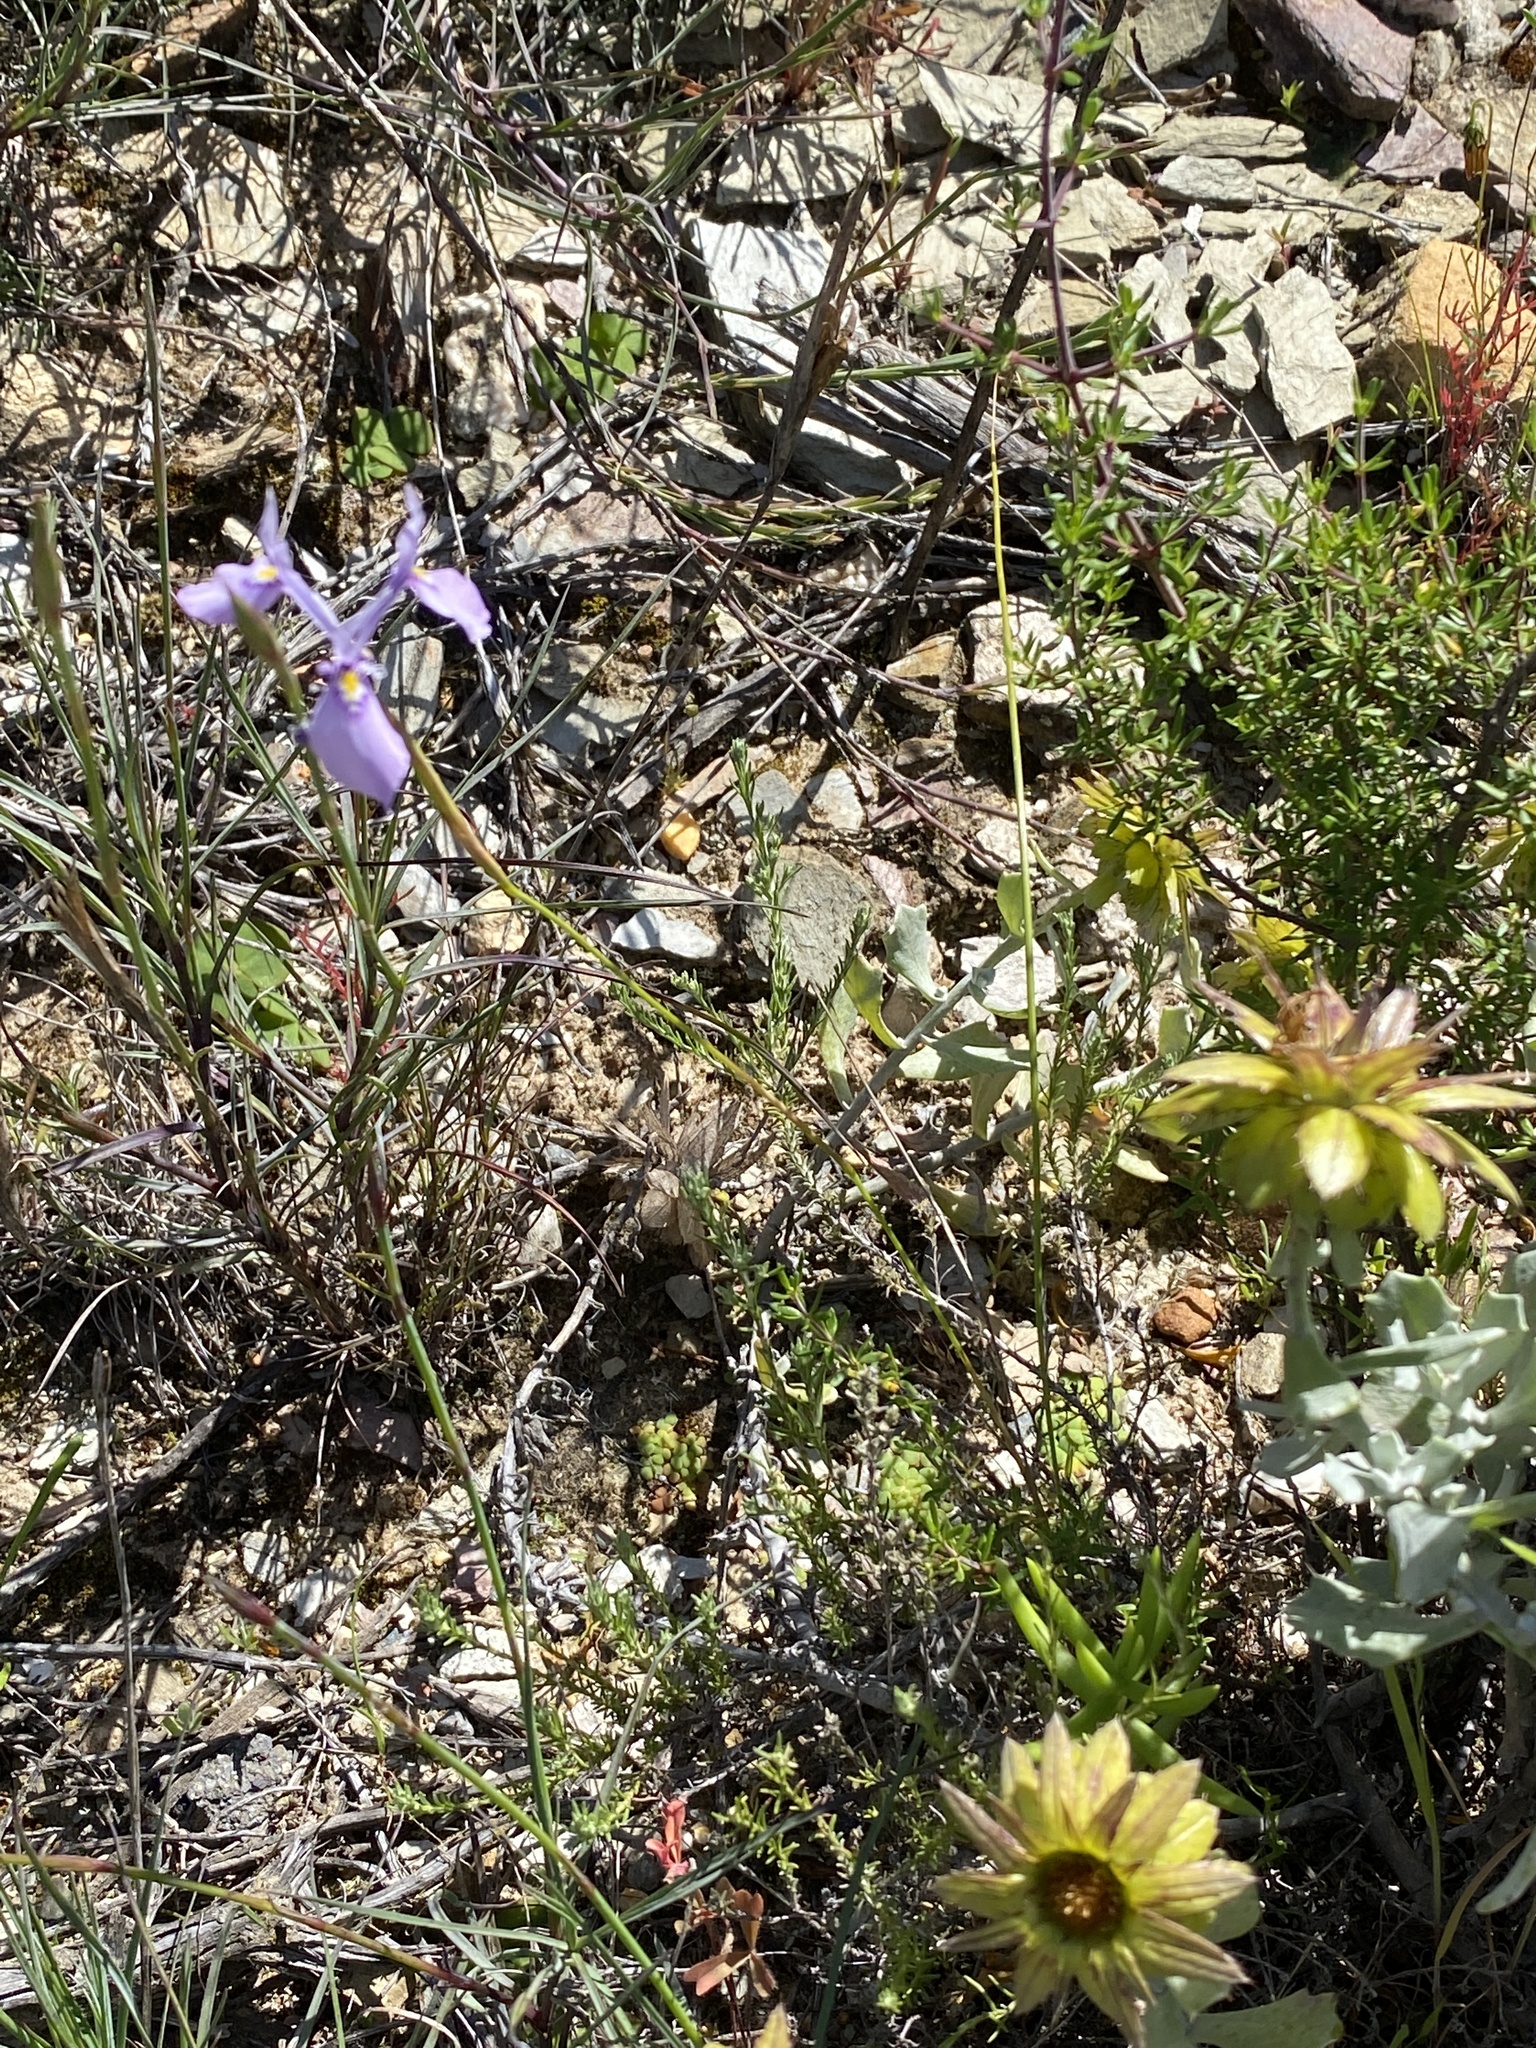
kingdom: Plantae
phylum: Tracheophyta
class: Liliopsida
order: Asparagales
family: Iridaceae
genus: Moraea
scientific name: Moraea tripetala
